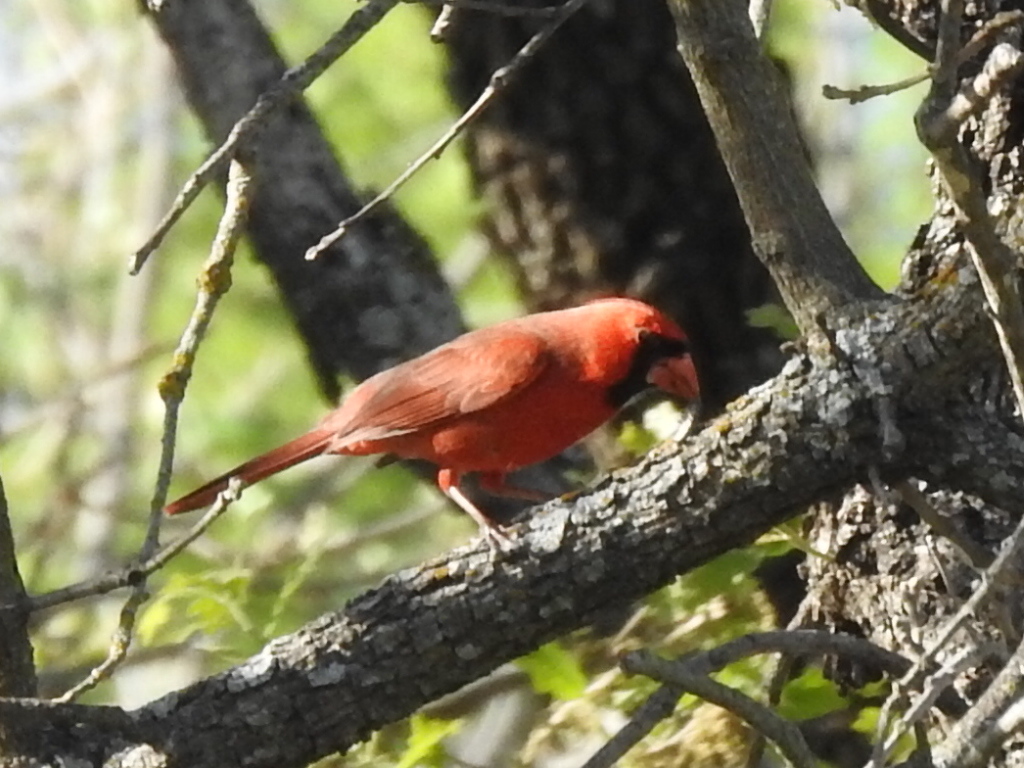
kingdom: Animalia
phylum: Chordata
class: Aves
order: Passeriformes
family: Cardinalidae
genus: Cardinalis
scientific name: Cardinalis cardinalis
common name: Northern cardinal
